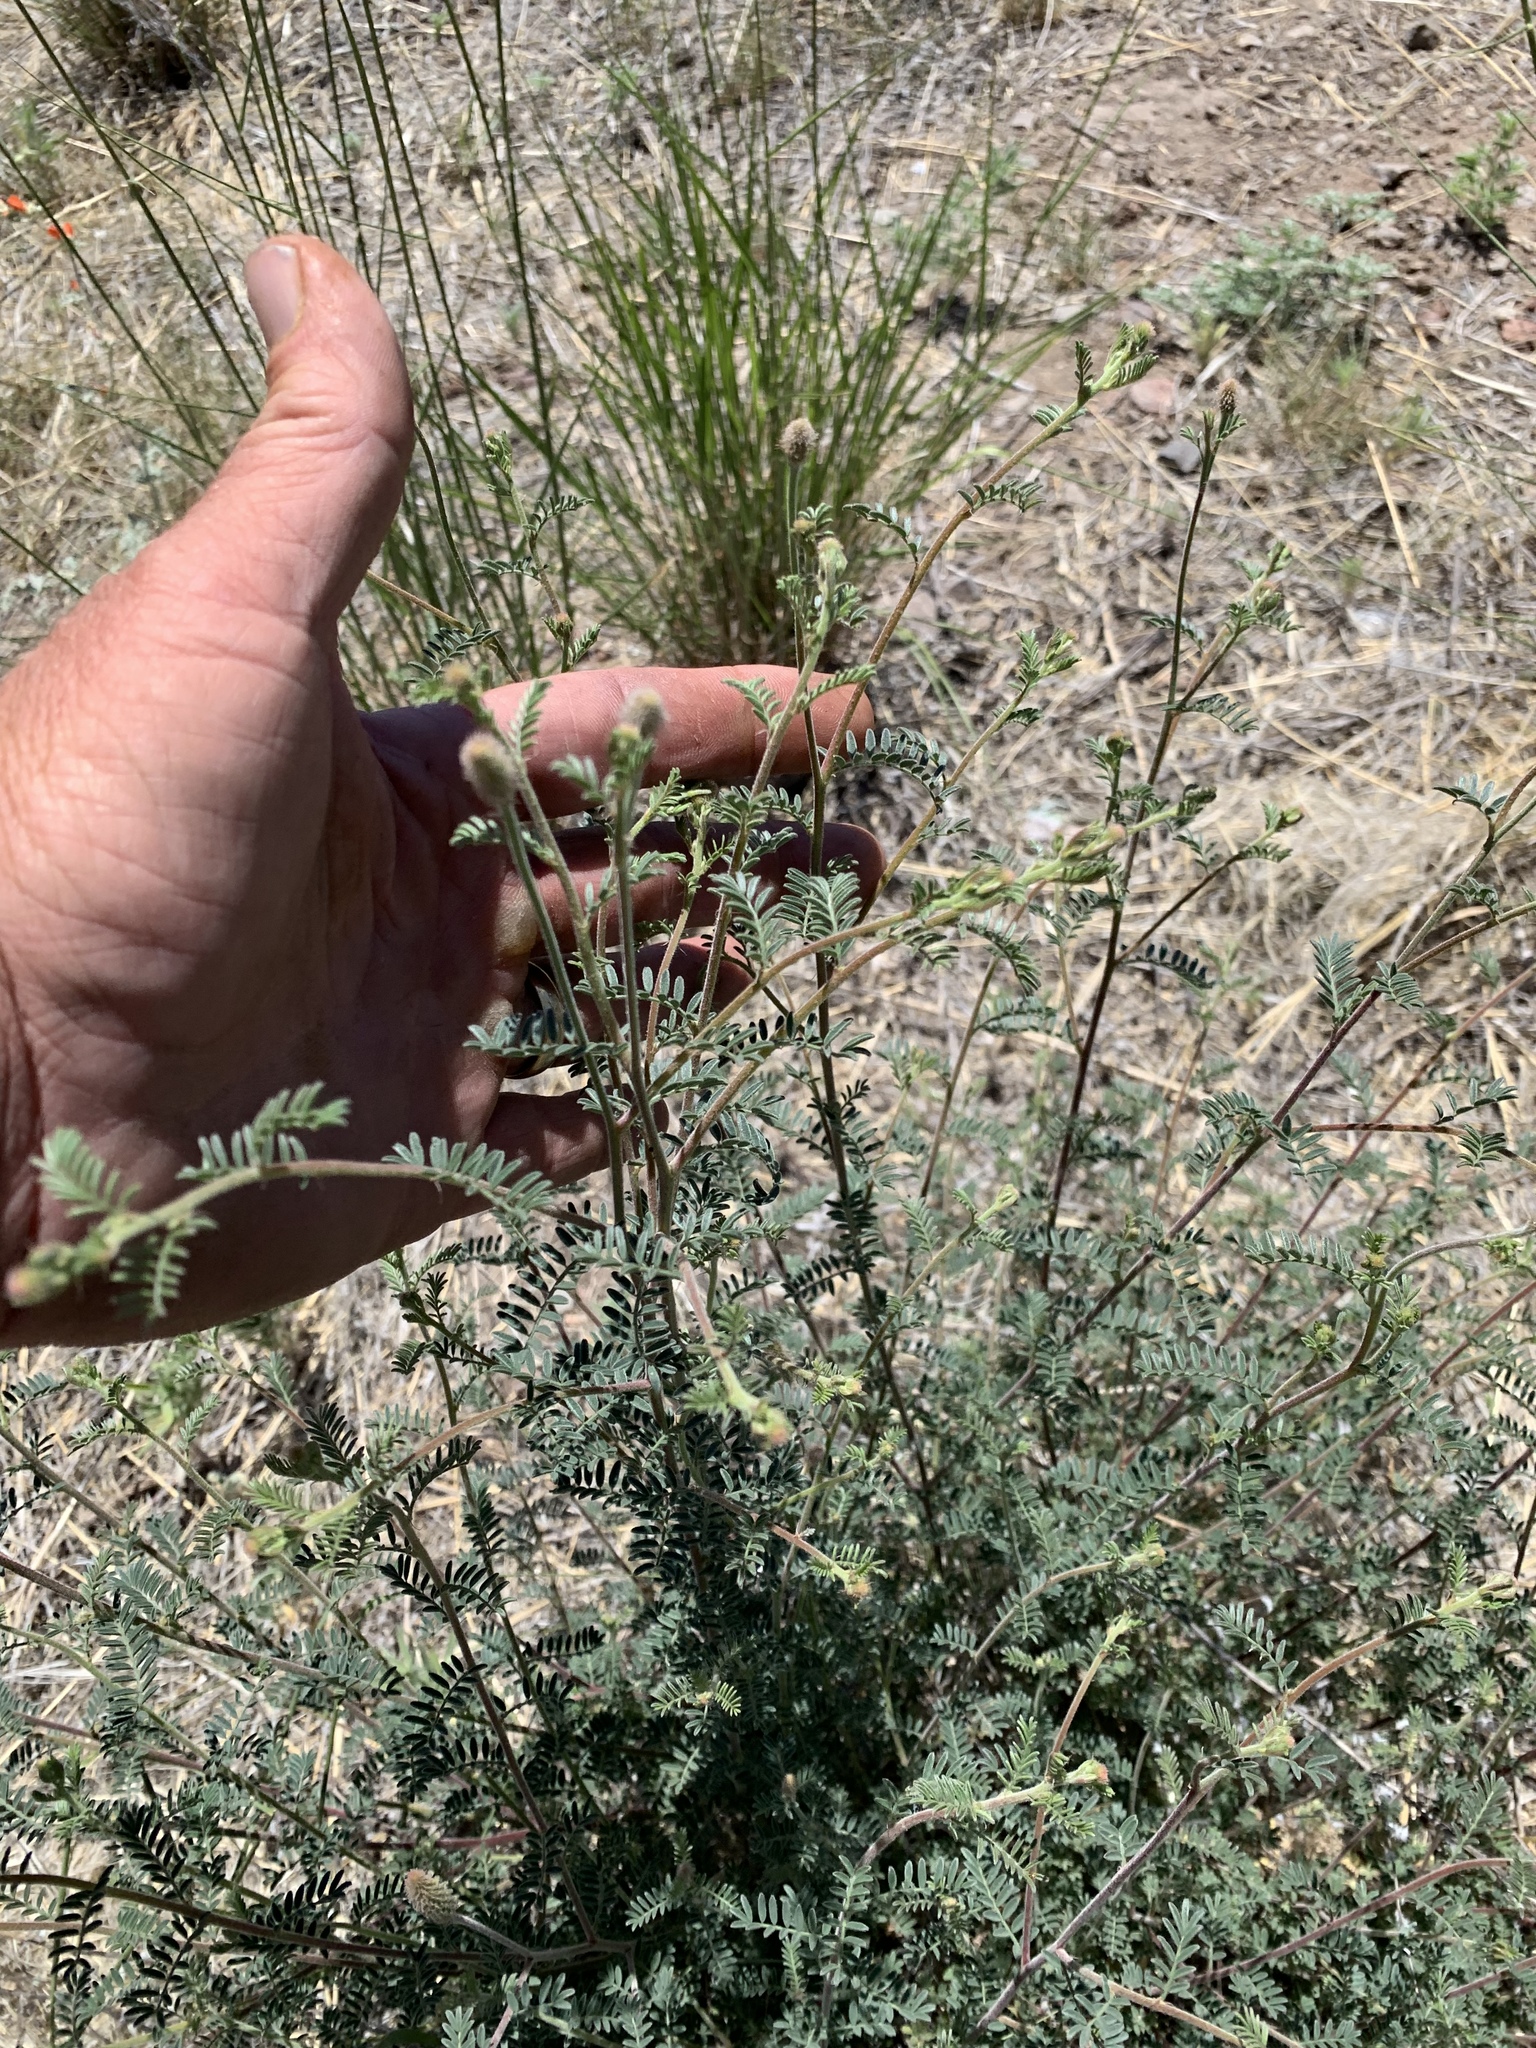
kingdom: Plantae
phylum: Tracheophyta
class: Magnoliopsida
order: Fabales
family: Fabaceae
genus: Dalea
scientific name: Dalea albiflora
